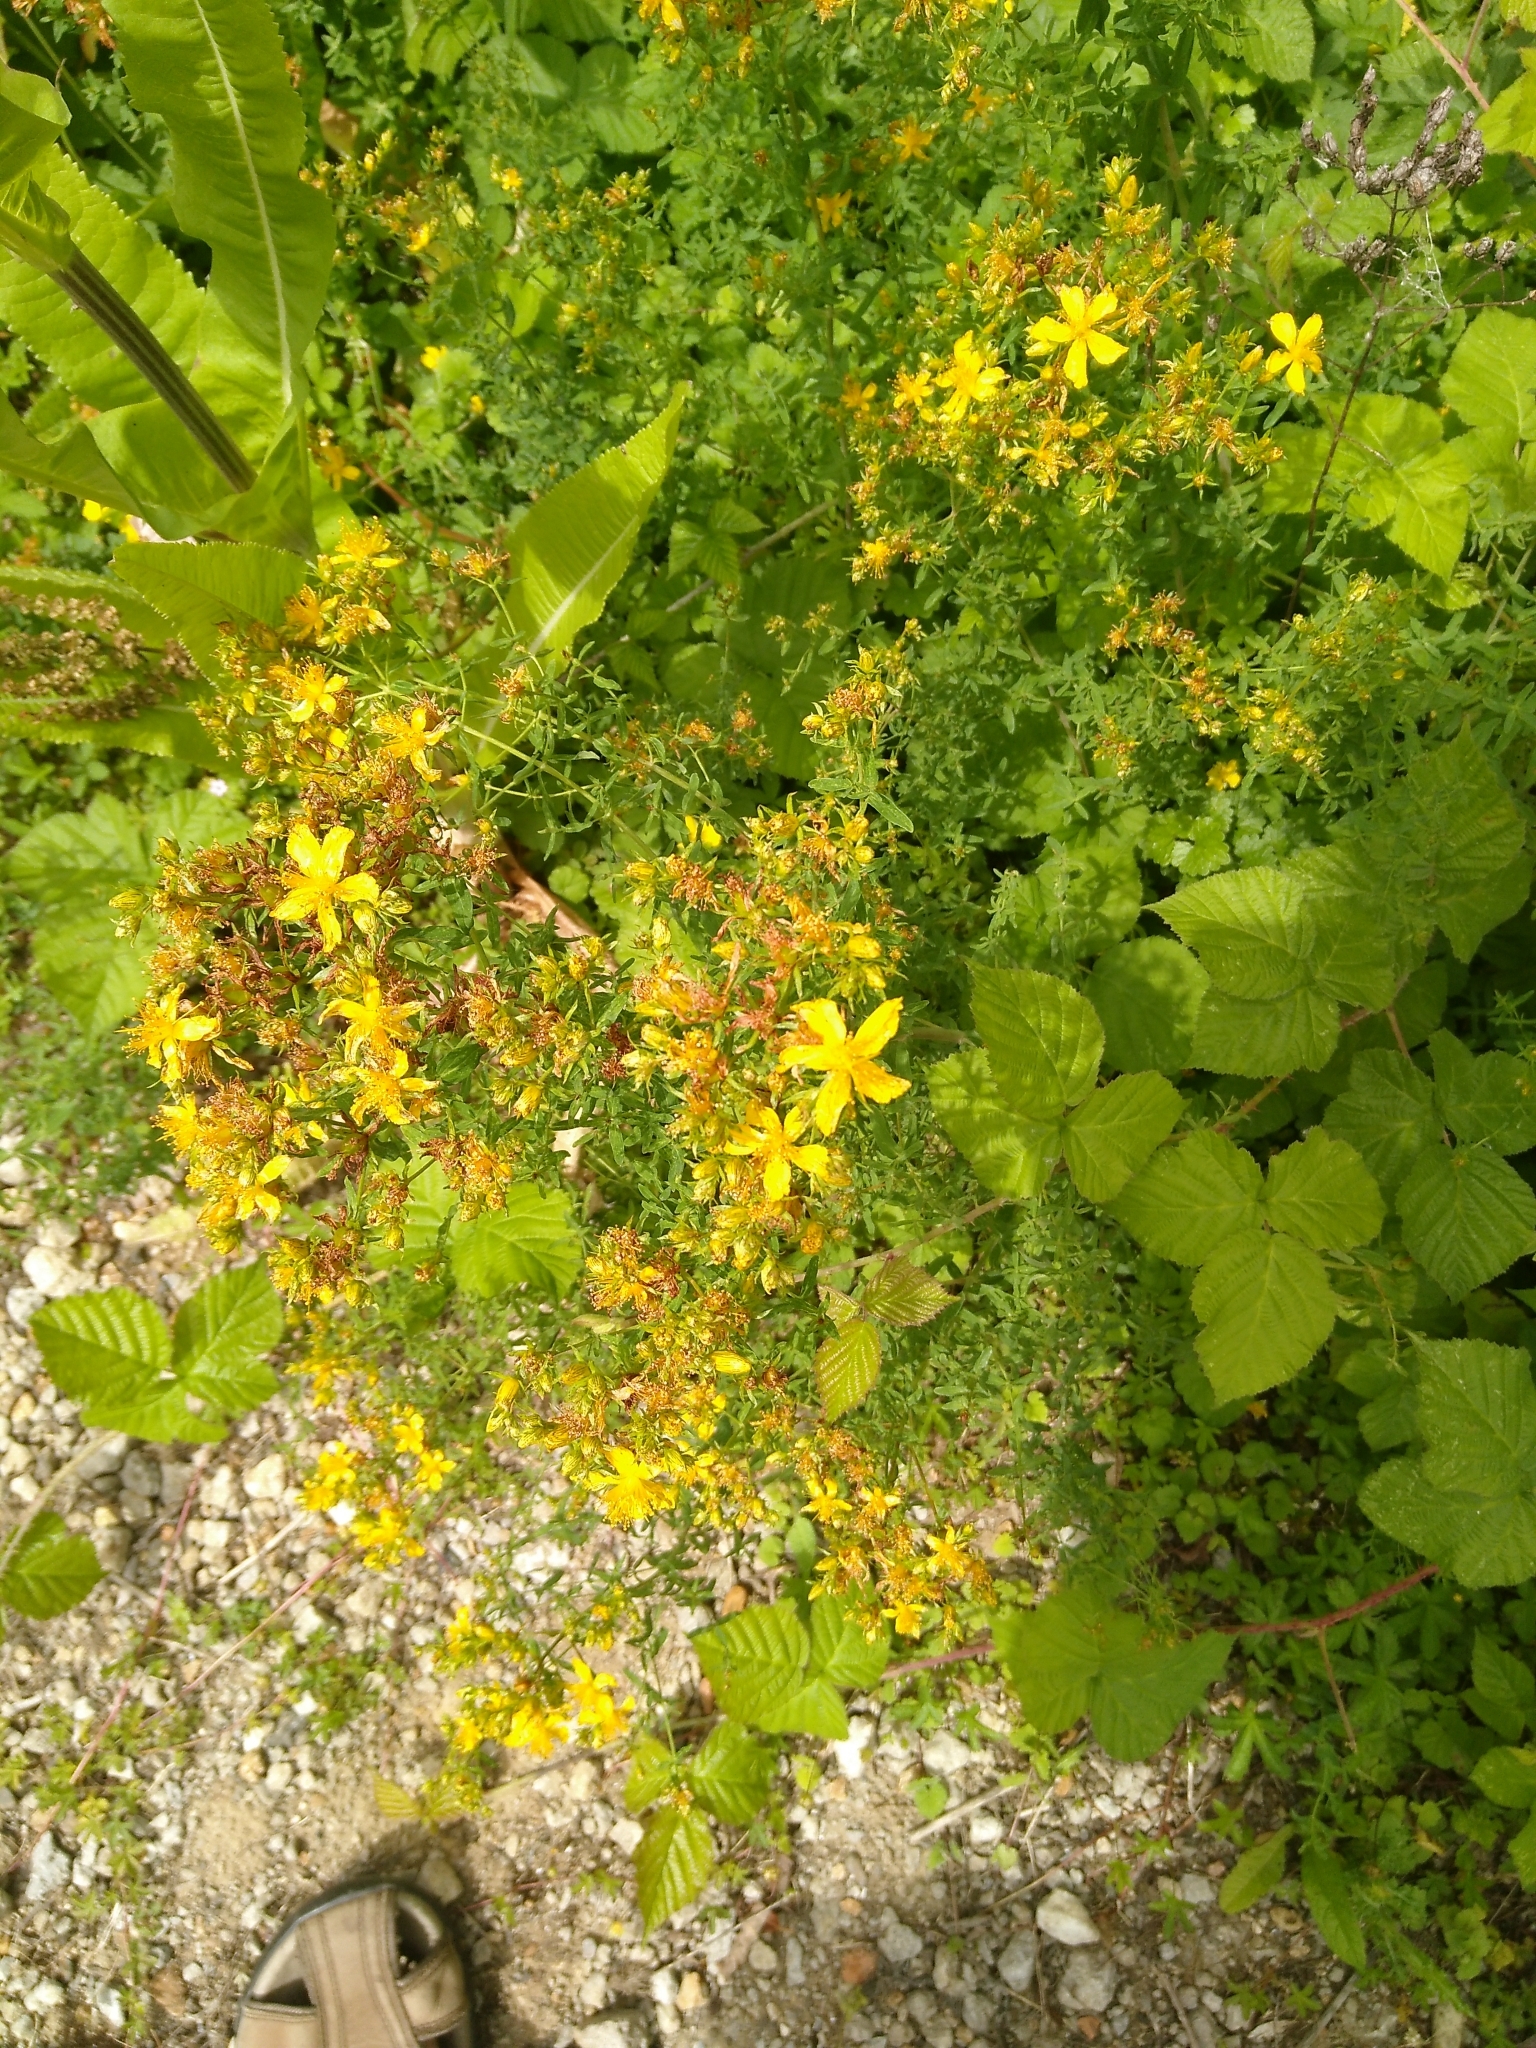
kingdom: Plantae
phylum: Tracheophyta
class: Magnoliopsida
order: Malpighiales
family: Hypericaceae
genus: Hypericum
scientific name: Hypericum perforatum
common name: Common st. johnswort
